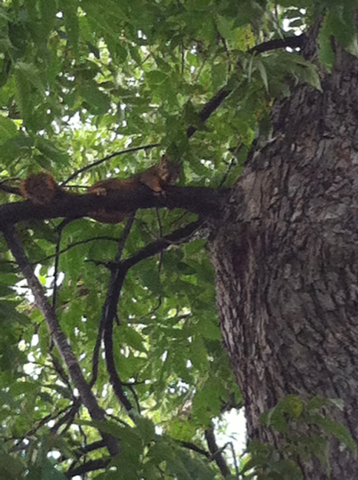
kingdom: Animalia
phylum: Chordata
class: Mammalia
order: Rodentia
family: Sciuridae
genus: Sciurus
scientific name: Sciurus niger
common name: Fox squirrel
